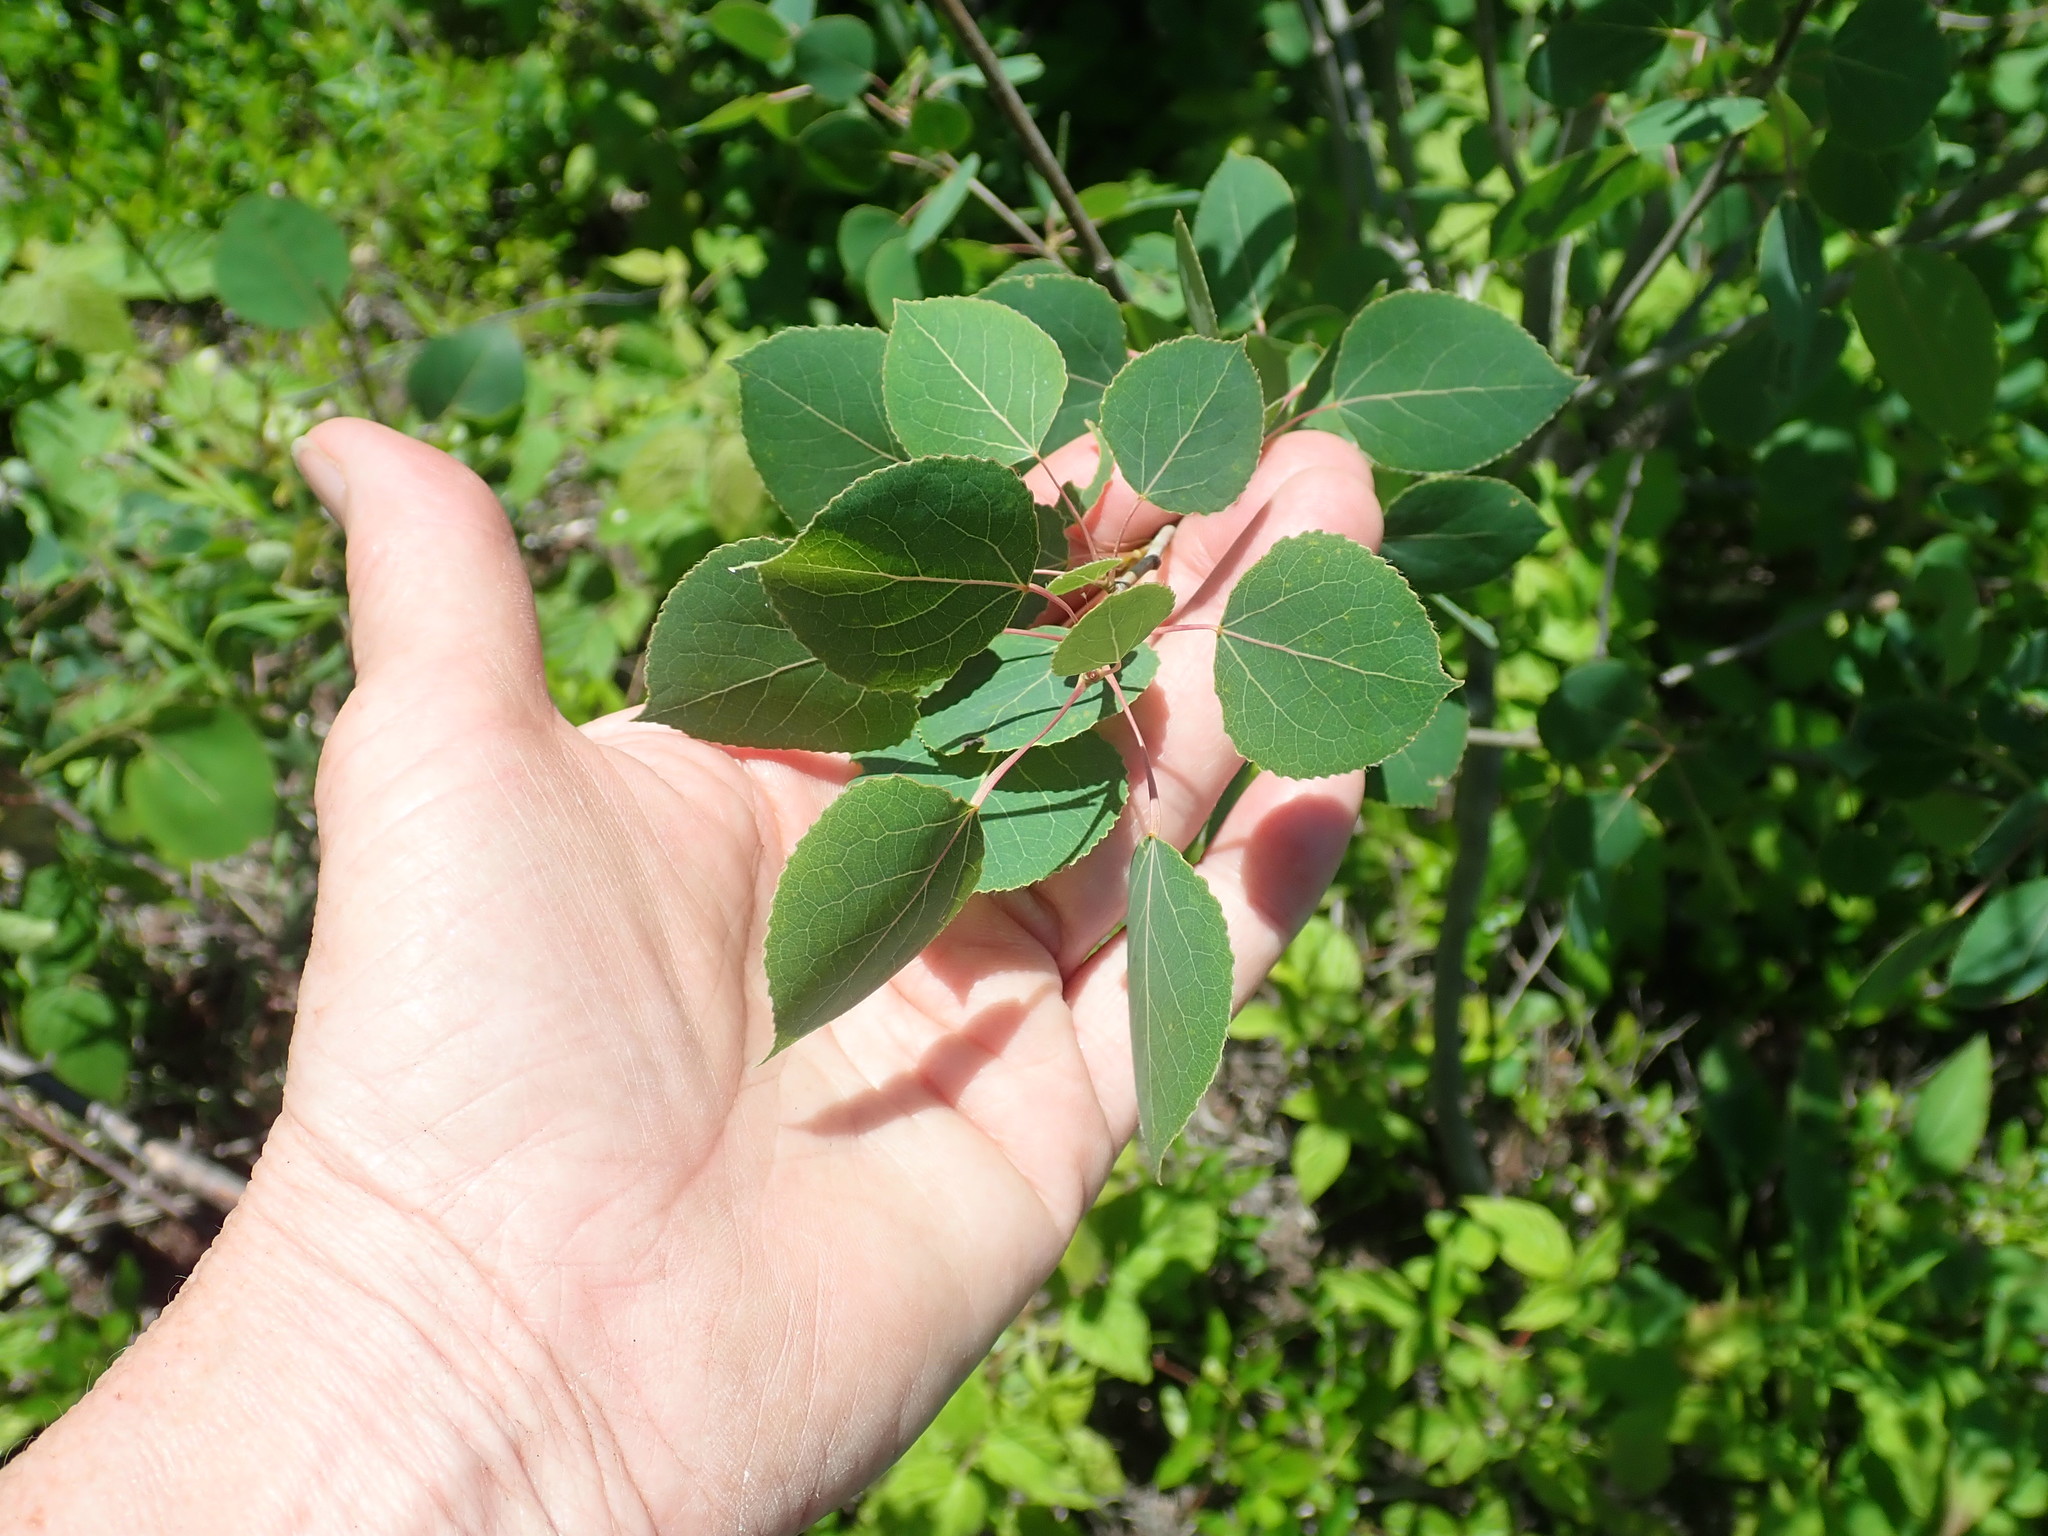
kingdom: Plantae
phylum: Tracheophyta
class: Magnoliopsida
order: Malpighiales
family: Salicaceae
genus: Populus
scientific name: Populus tremuloides
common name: Quaking aspen
